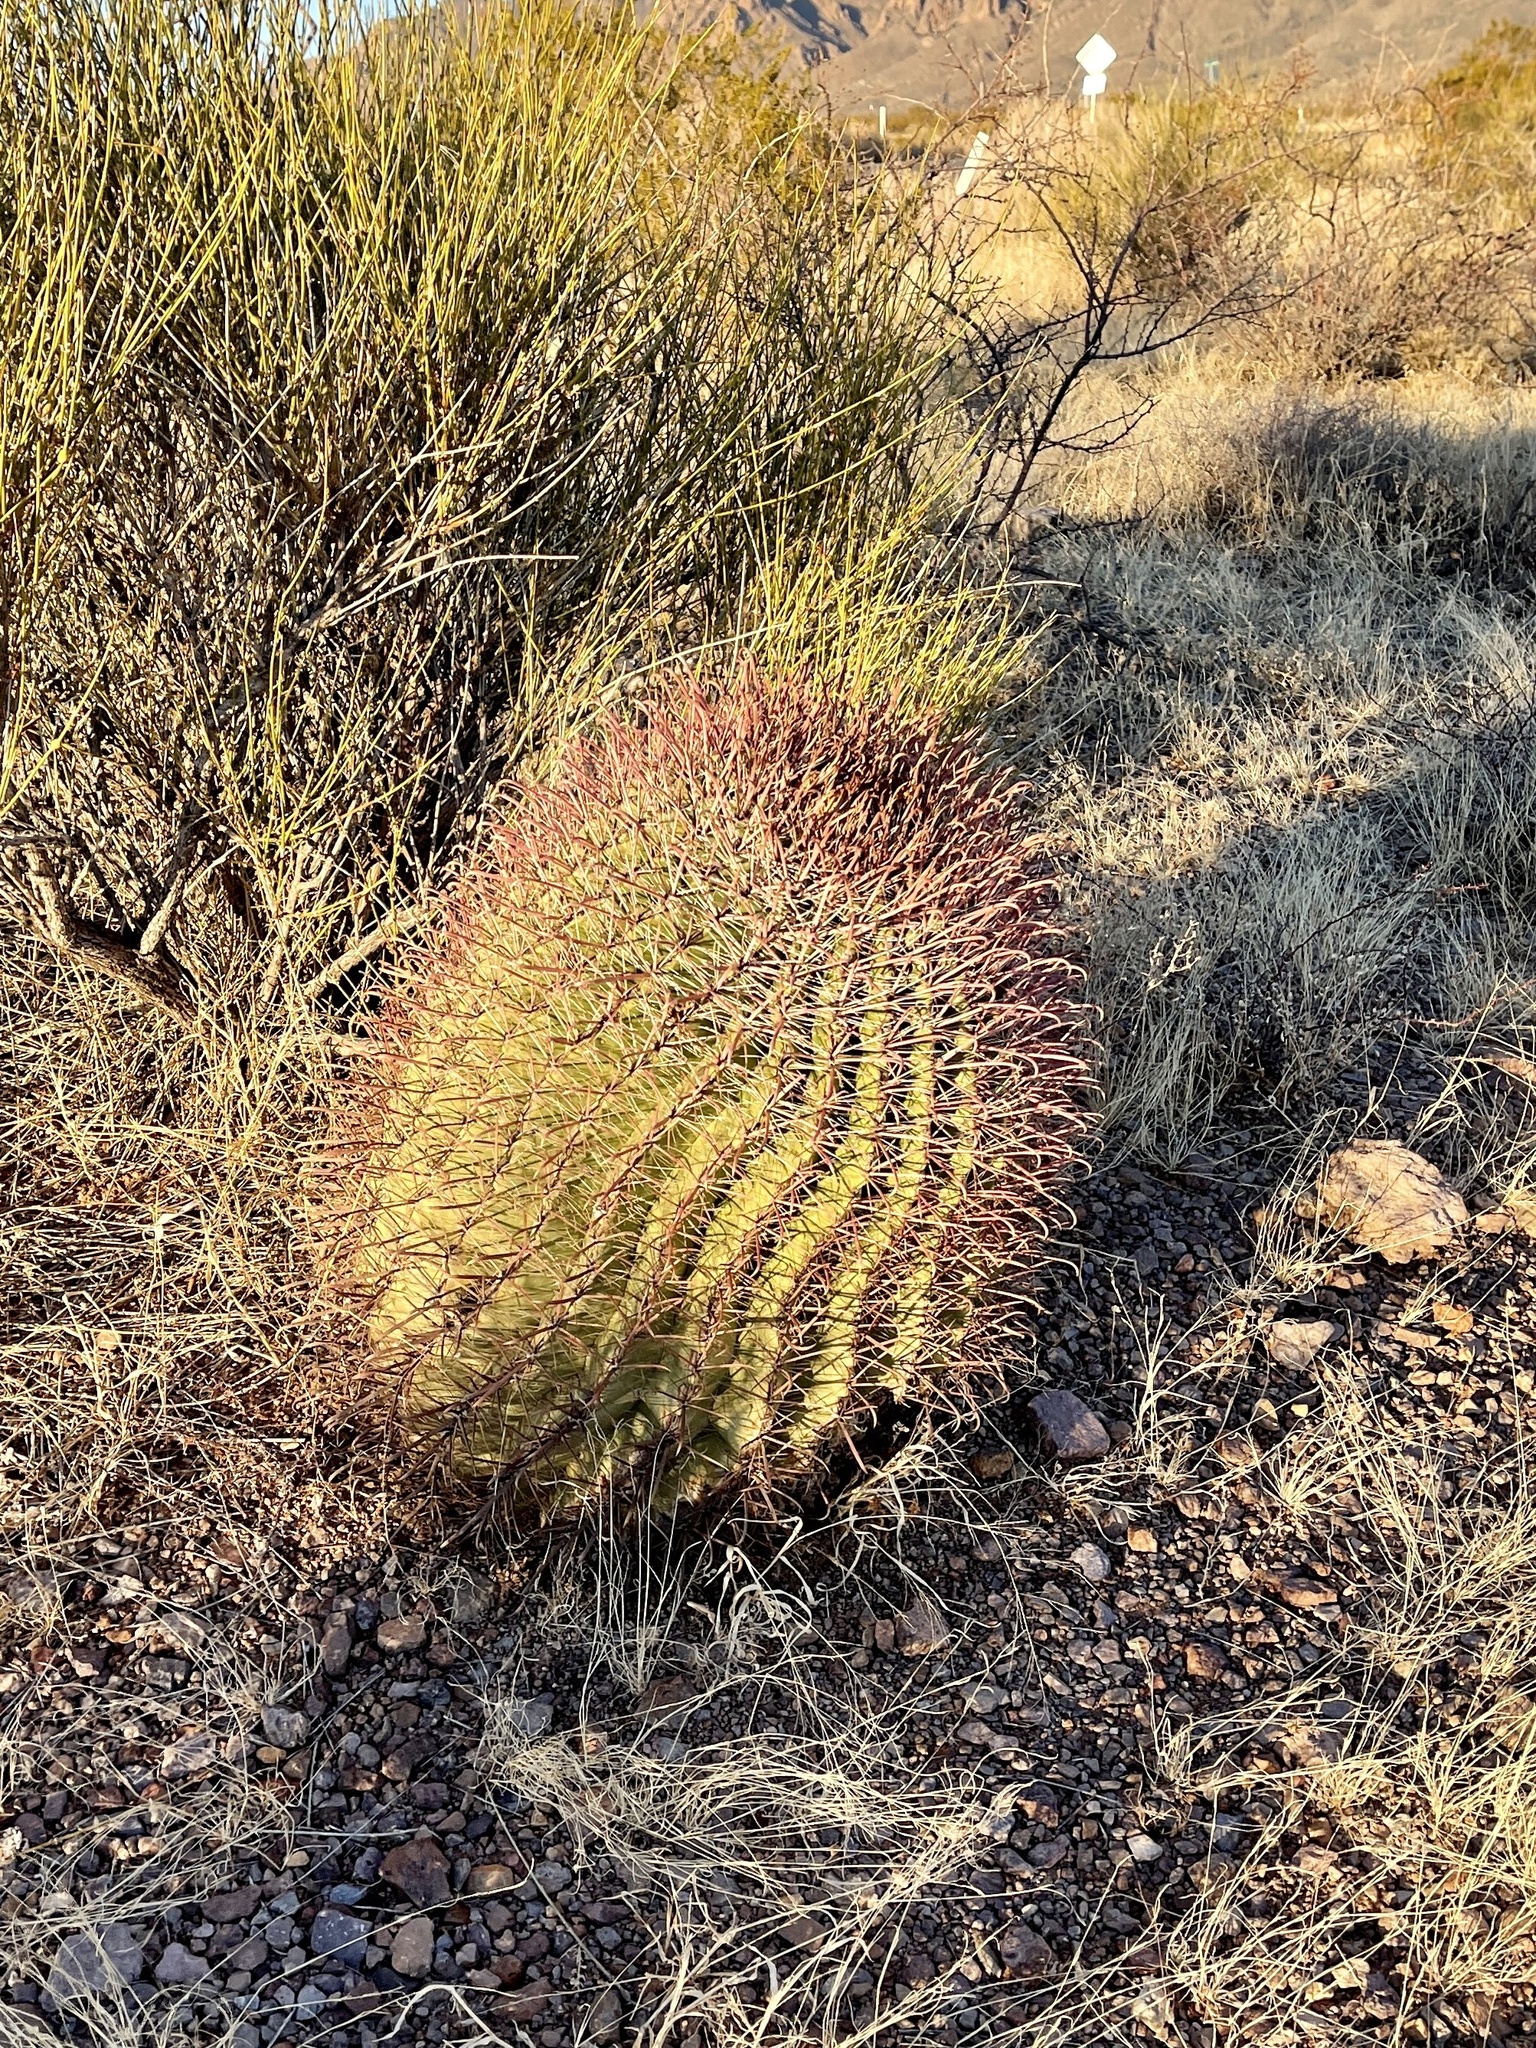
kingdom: Plantae
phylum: Tracheophyta
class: Magnoliopsida
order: Caryophyllales
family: Cactaceae
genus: Ferocactus
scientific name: Ferocactus wislizeni
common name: Candy barrel cactus
